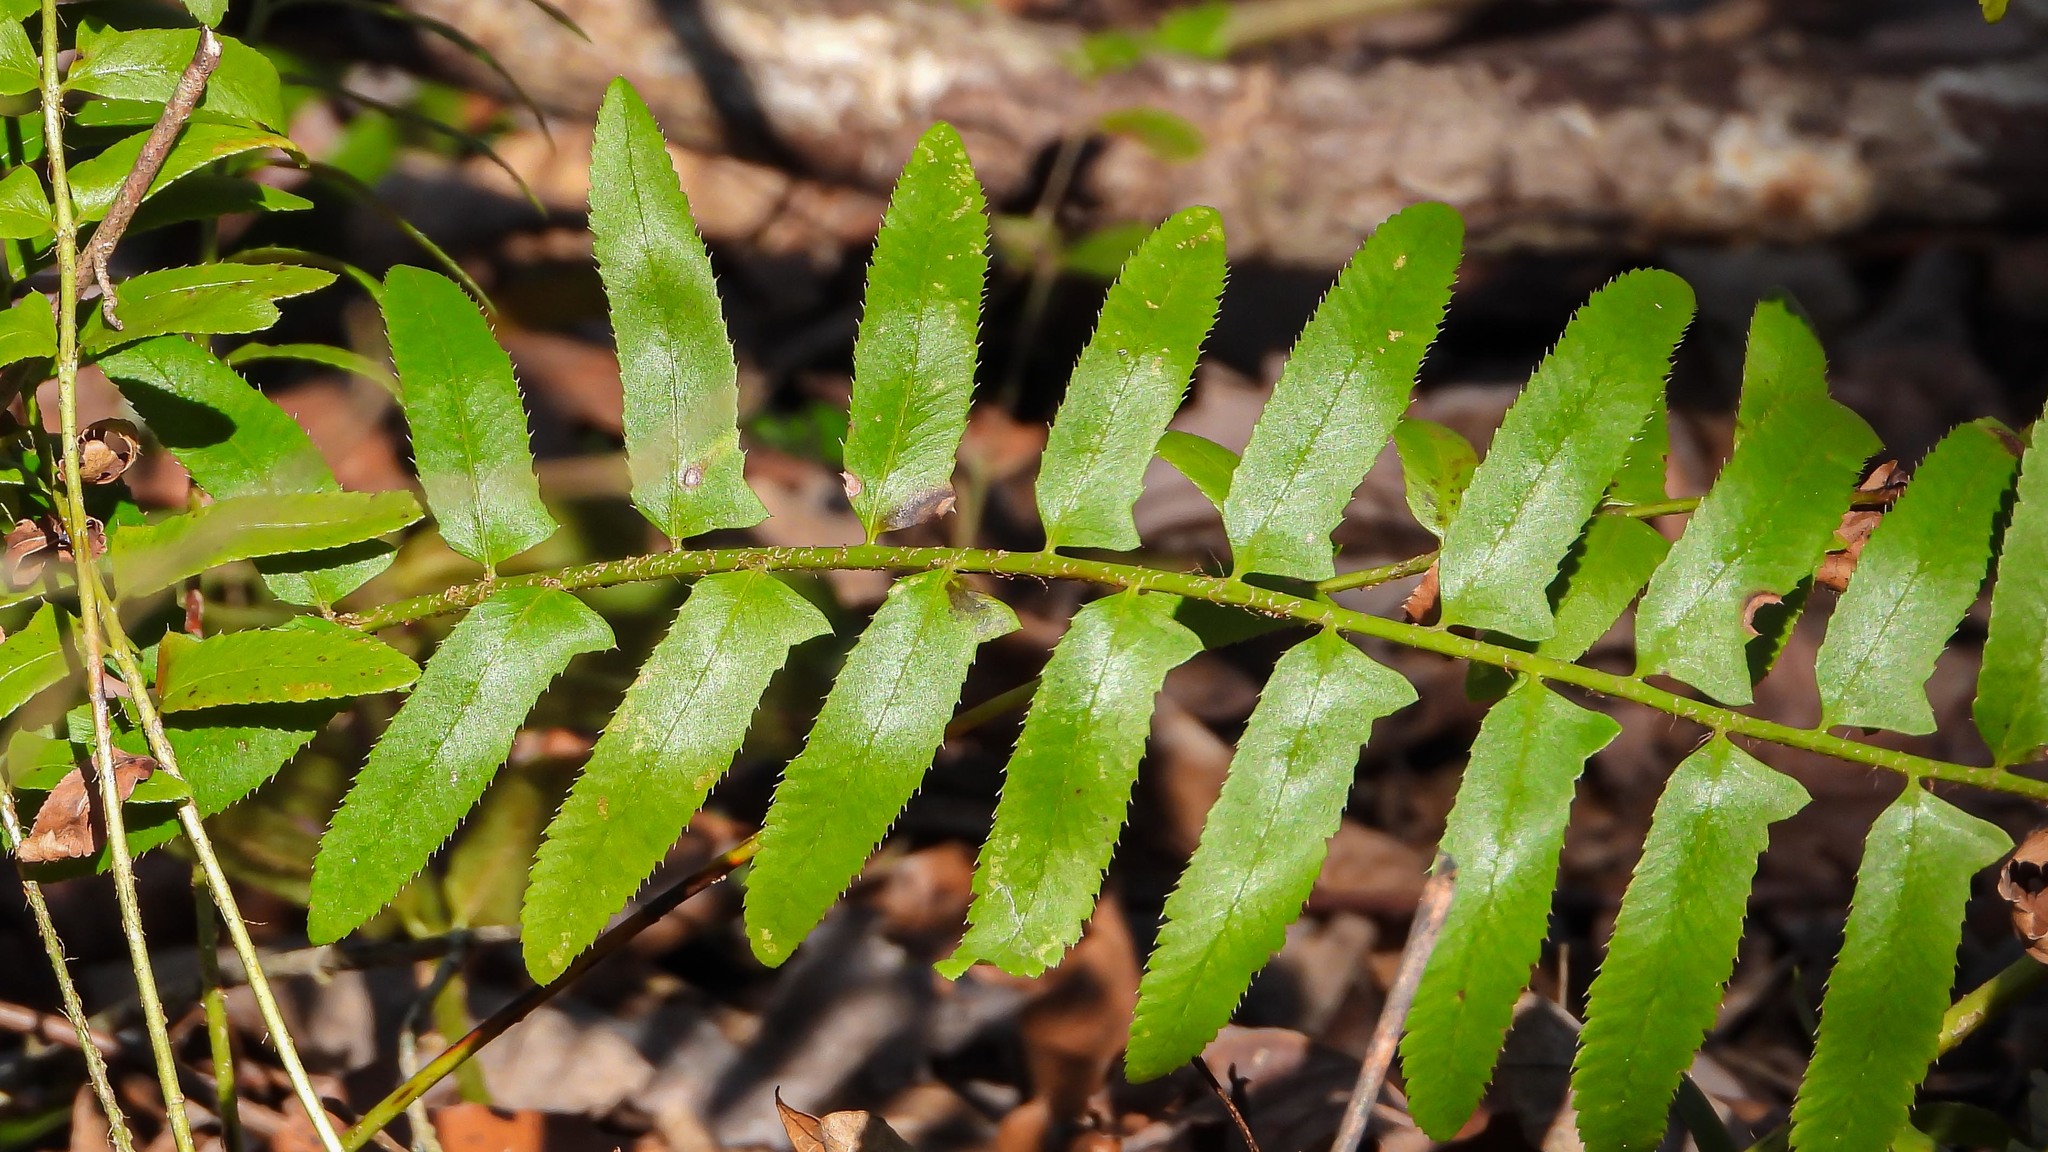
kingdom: Plantae
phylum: Tracheophyta
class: Polypodiopsida
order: Polypodiales
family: Dryopteridaceae
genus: Polystichum
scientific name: Polystichum acrostichoides
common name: Christmas fern
